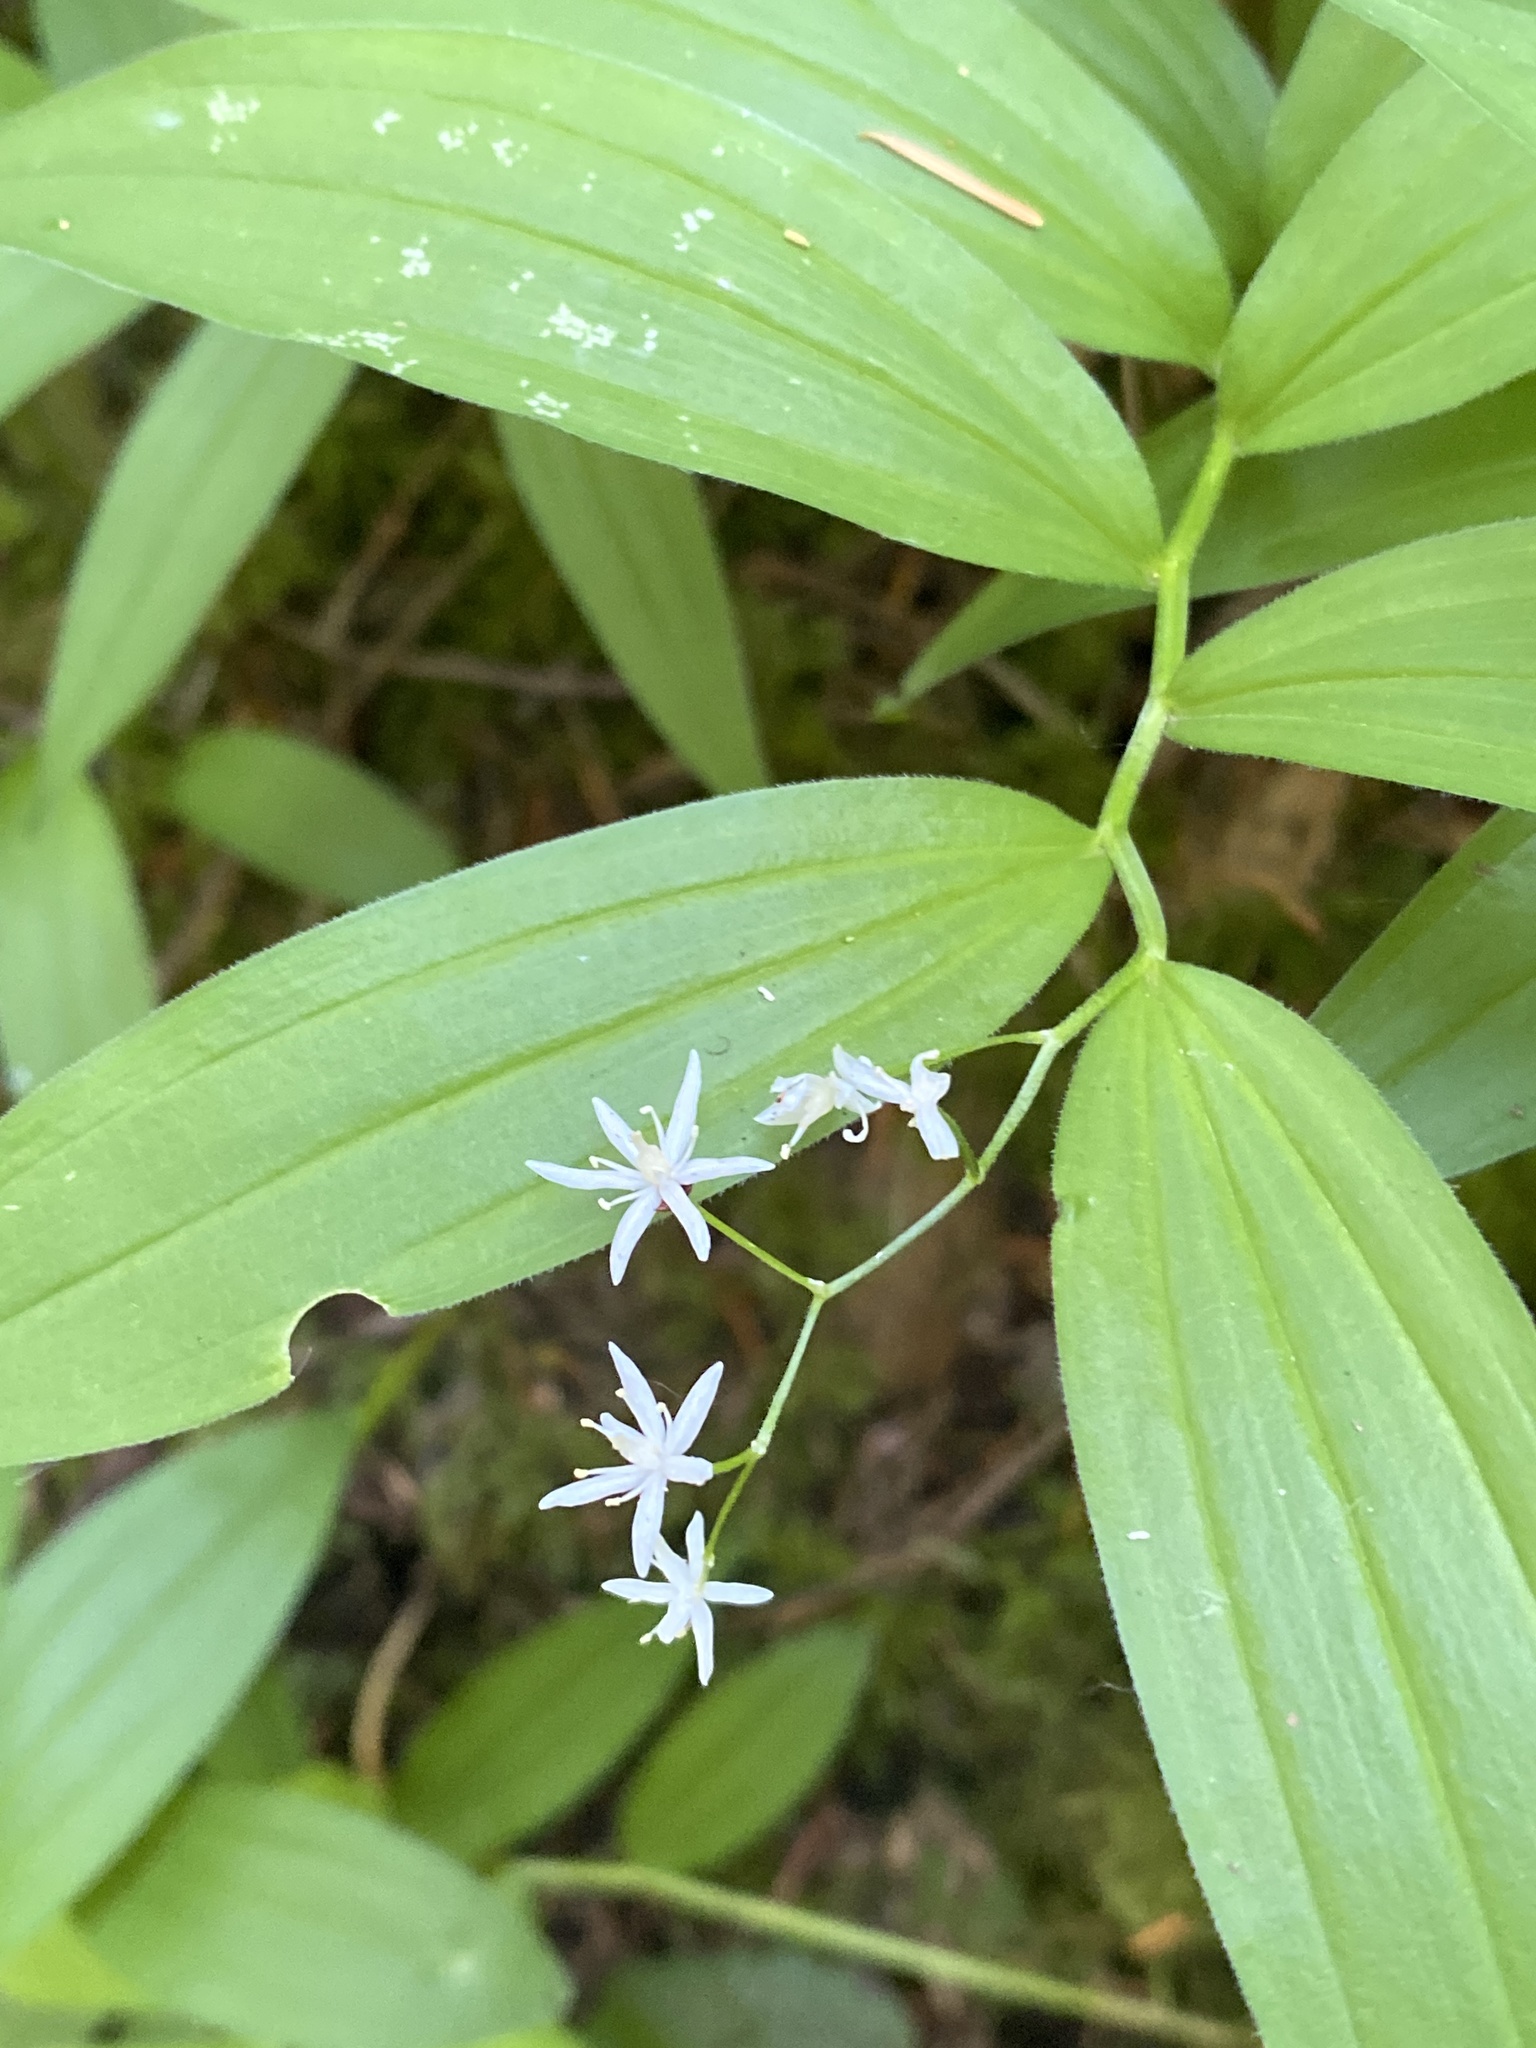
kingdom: Plantae
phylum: Tracheophyta
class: Liliopsida
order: Asparagales
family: Asparagaceae
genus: Maianthemum
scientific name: Maianthemum stellatum
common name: Little false solomon's seal
